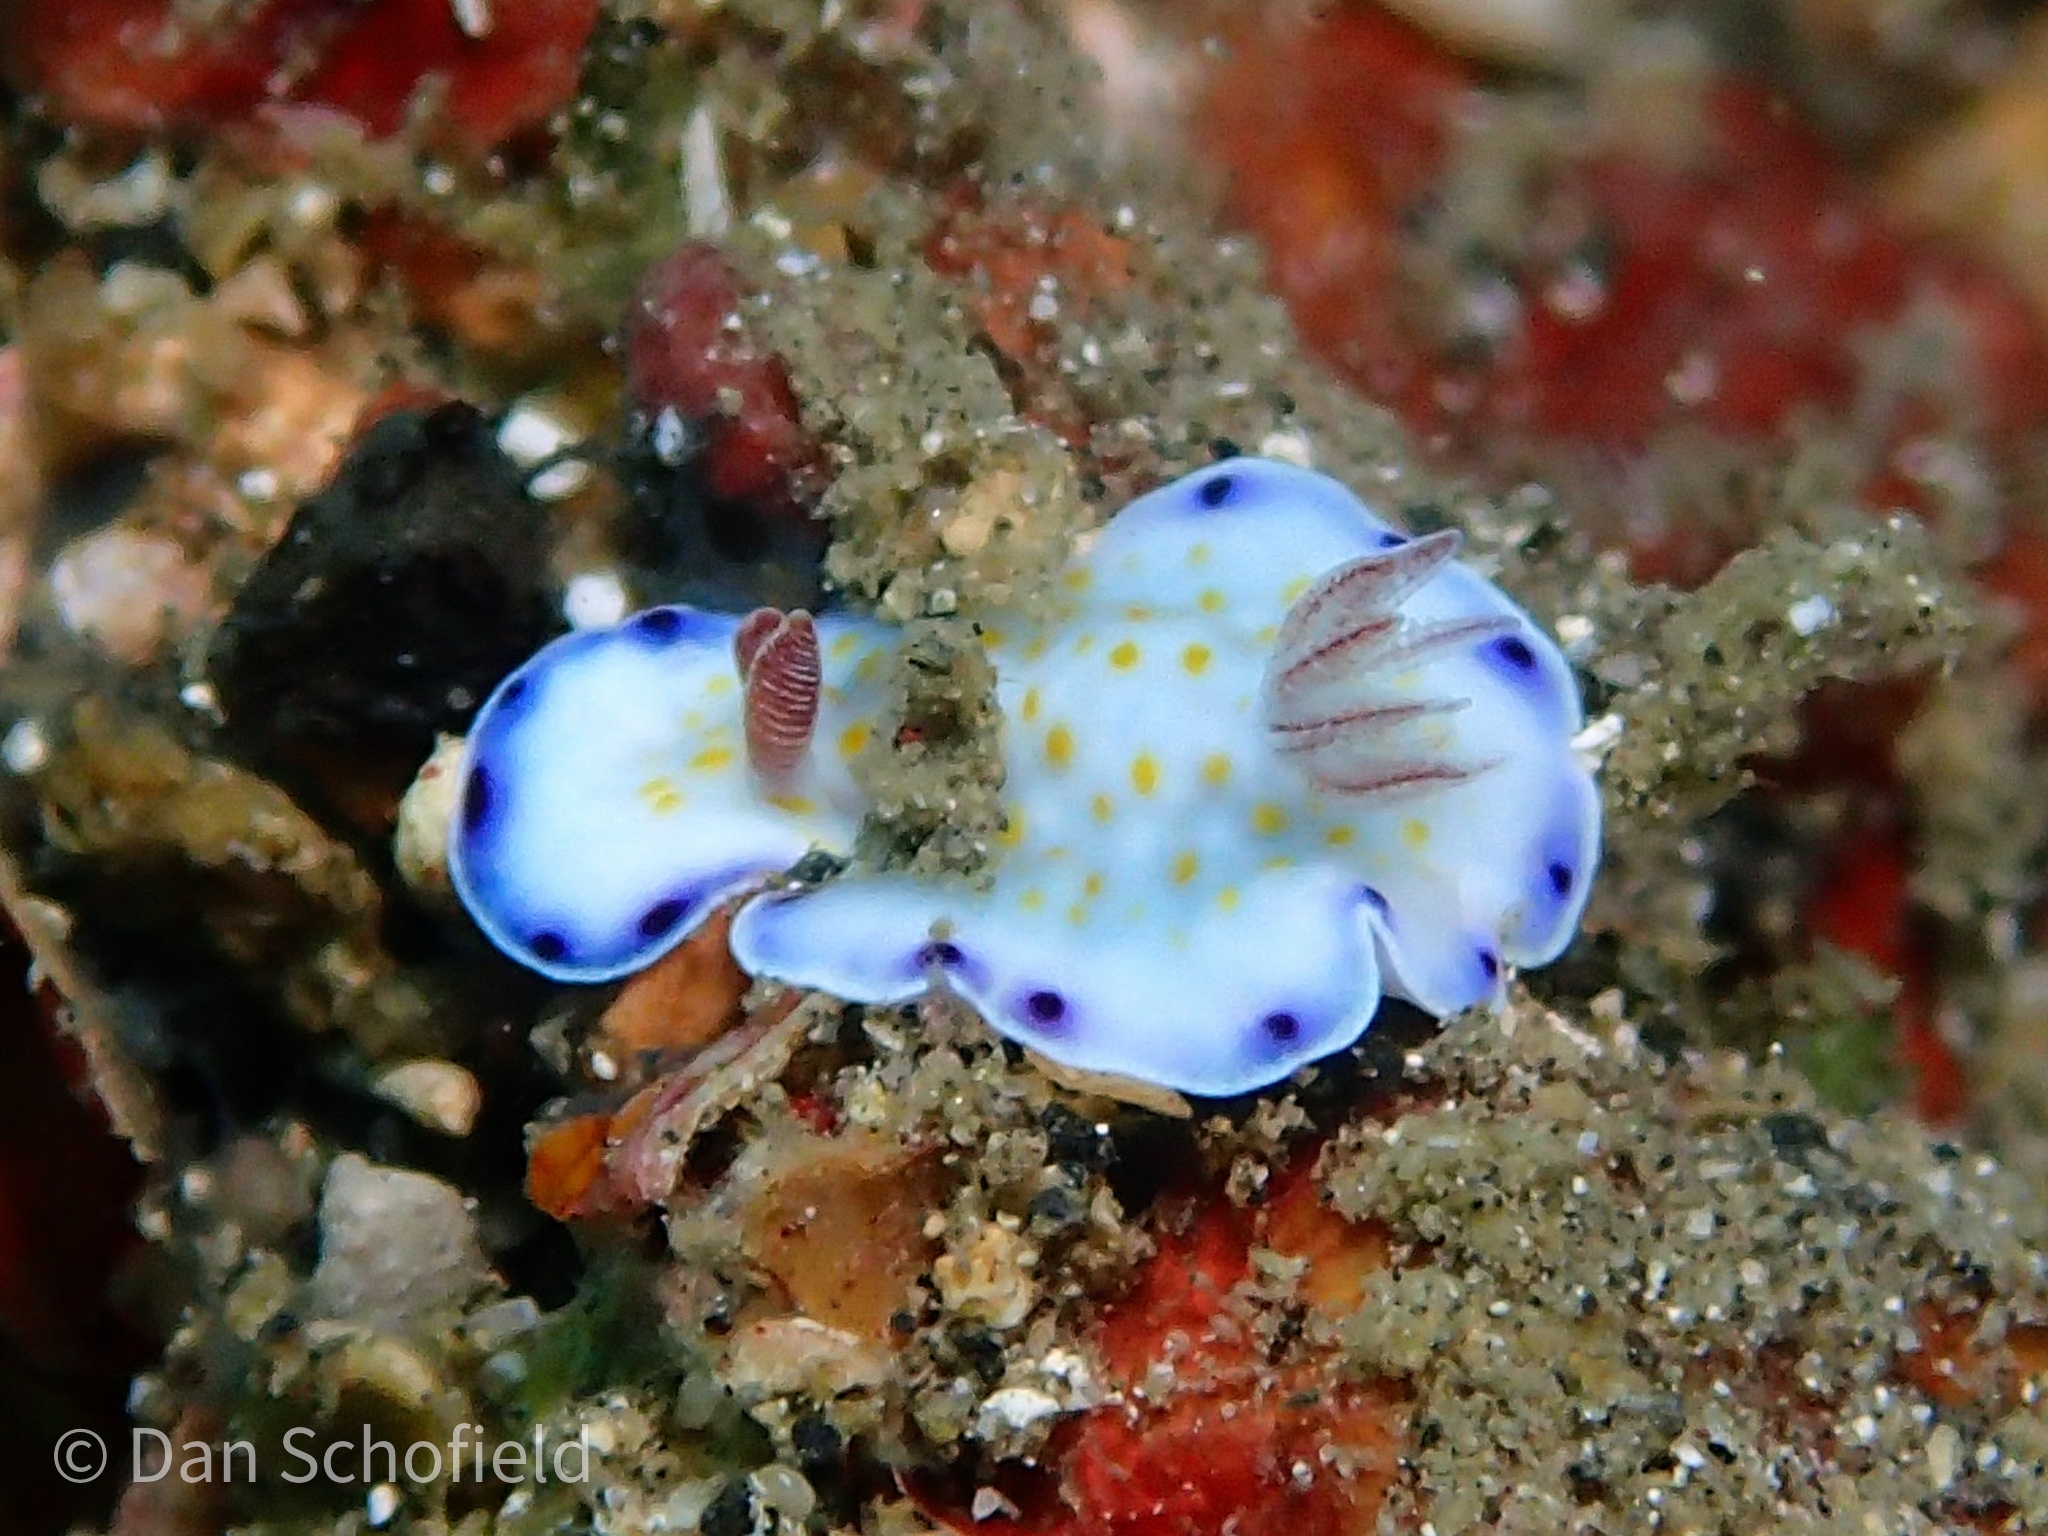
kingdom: Animalia
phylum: Mollusca
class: Gastropoda
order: Nudibranchia
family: Chromodorididae
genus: Goniobranchus
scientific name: Goniobranchus aureopurpureus
